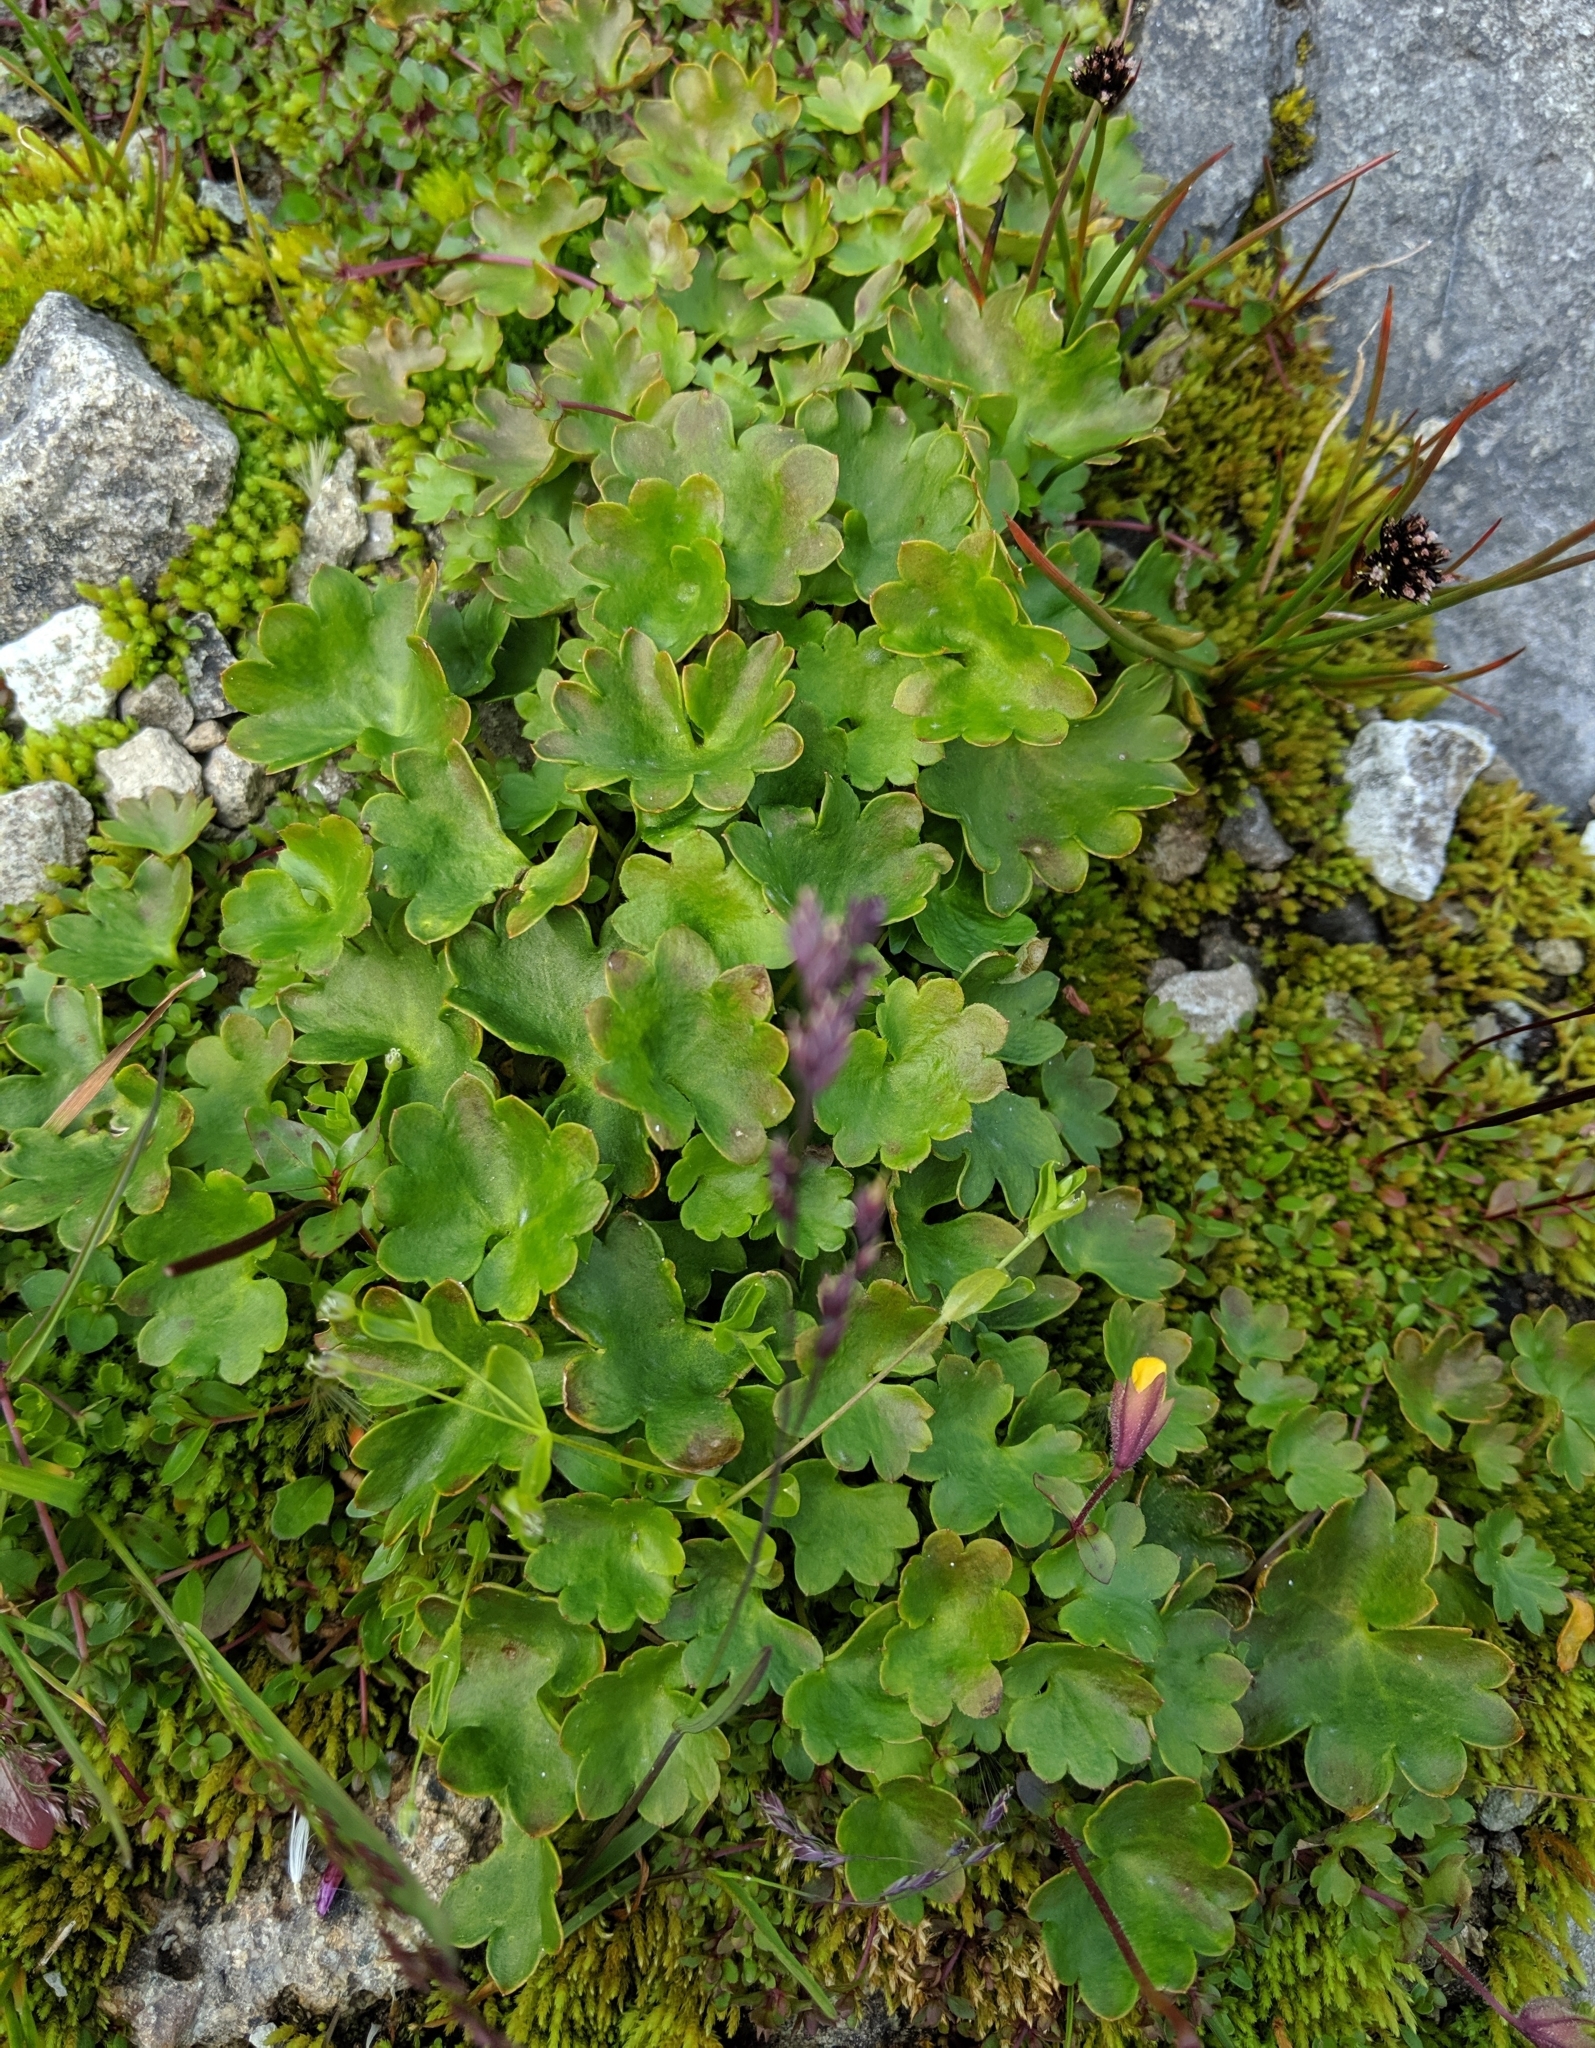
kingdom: Plantae
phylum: Tracheophyta
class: Magnoliopsida
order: Saxifragales
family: Saxifragaceae
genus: Micranthes
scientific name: Micranthes nelsoniana
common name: Nelson's saxifrage
